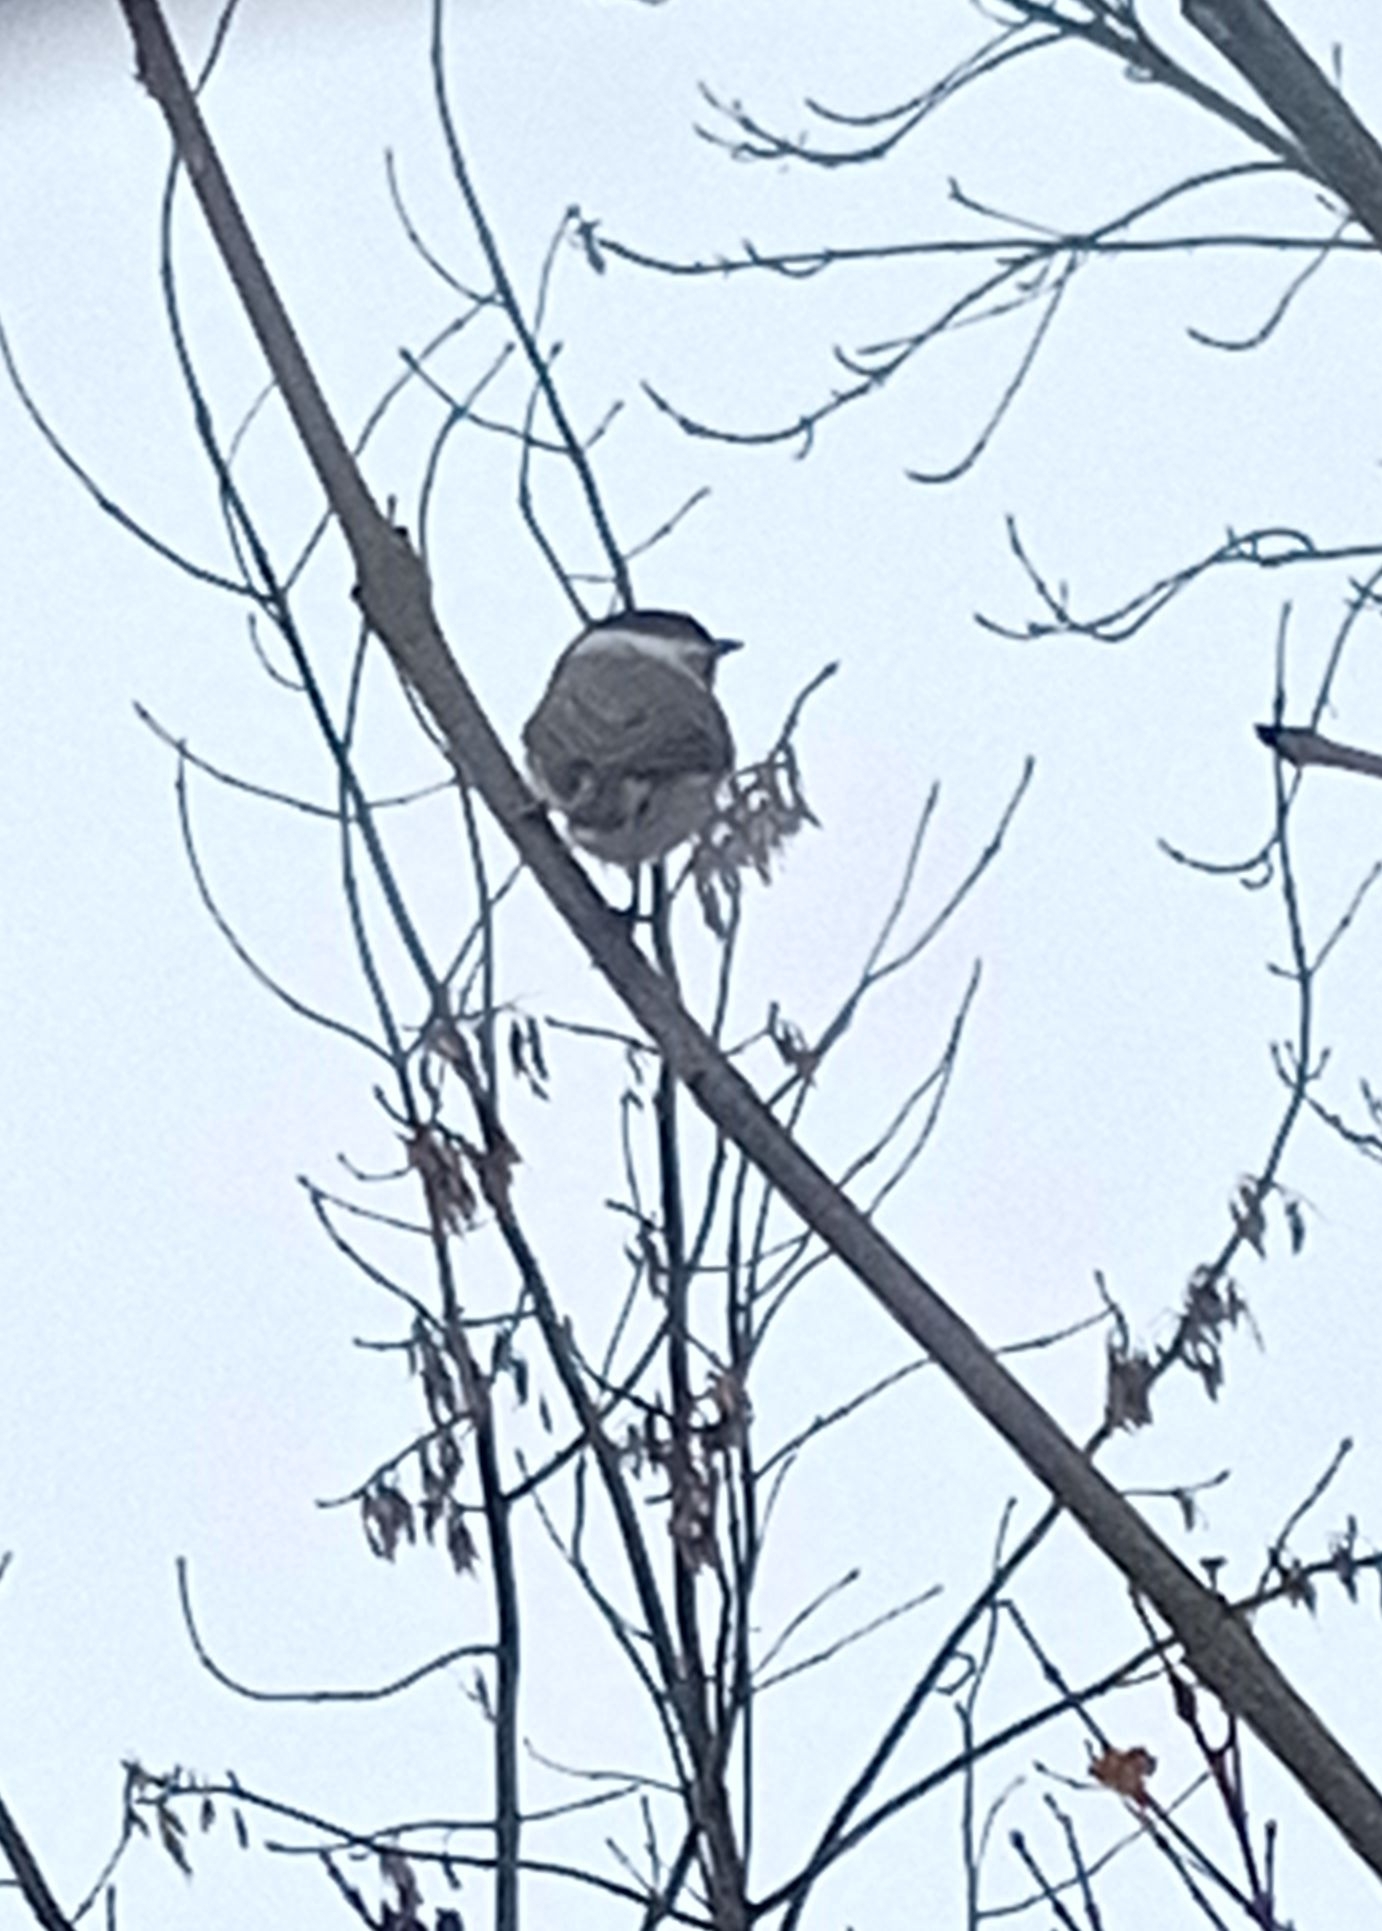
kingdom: Animalia
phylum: Chordata
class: Aves
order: Passeriformes
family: Paridae
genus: Poecile
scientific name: Poecile palustris
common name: Marsh tit
